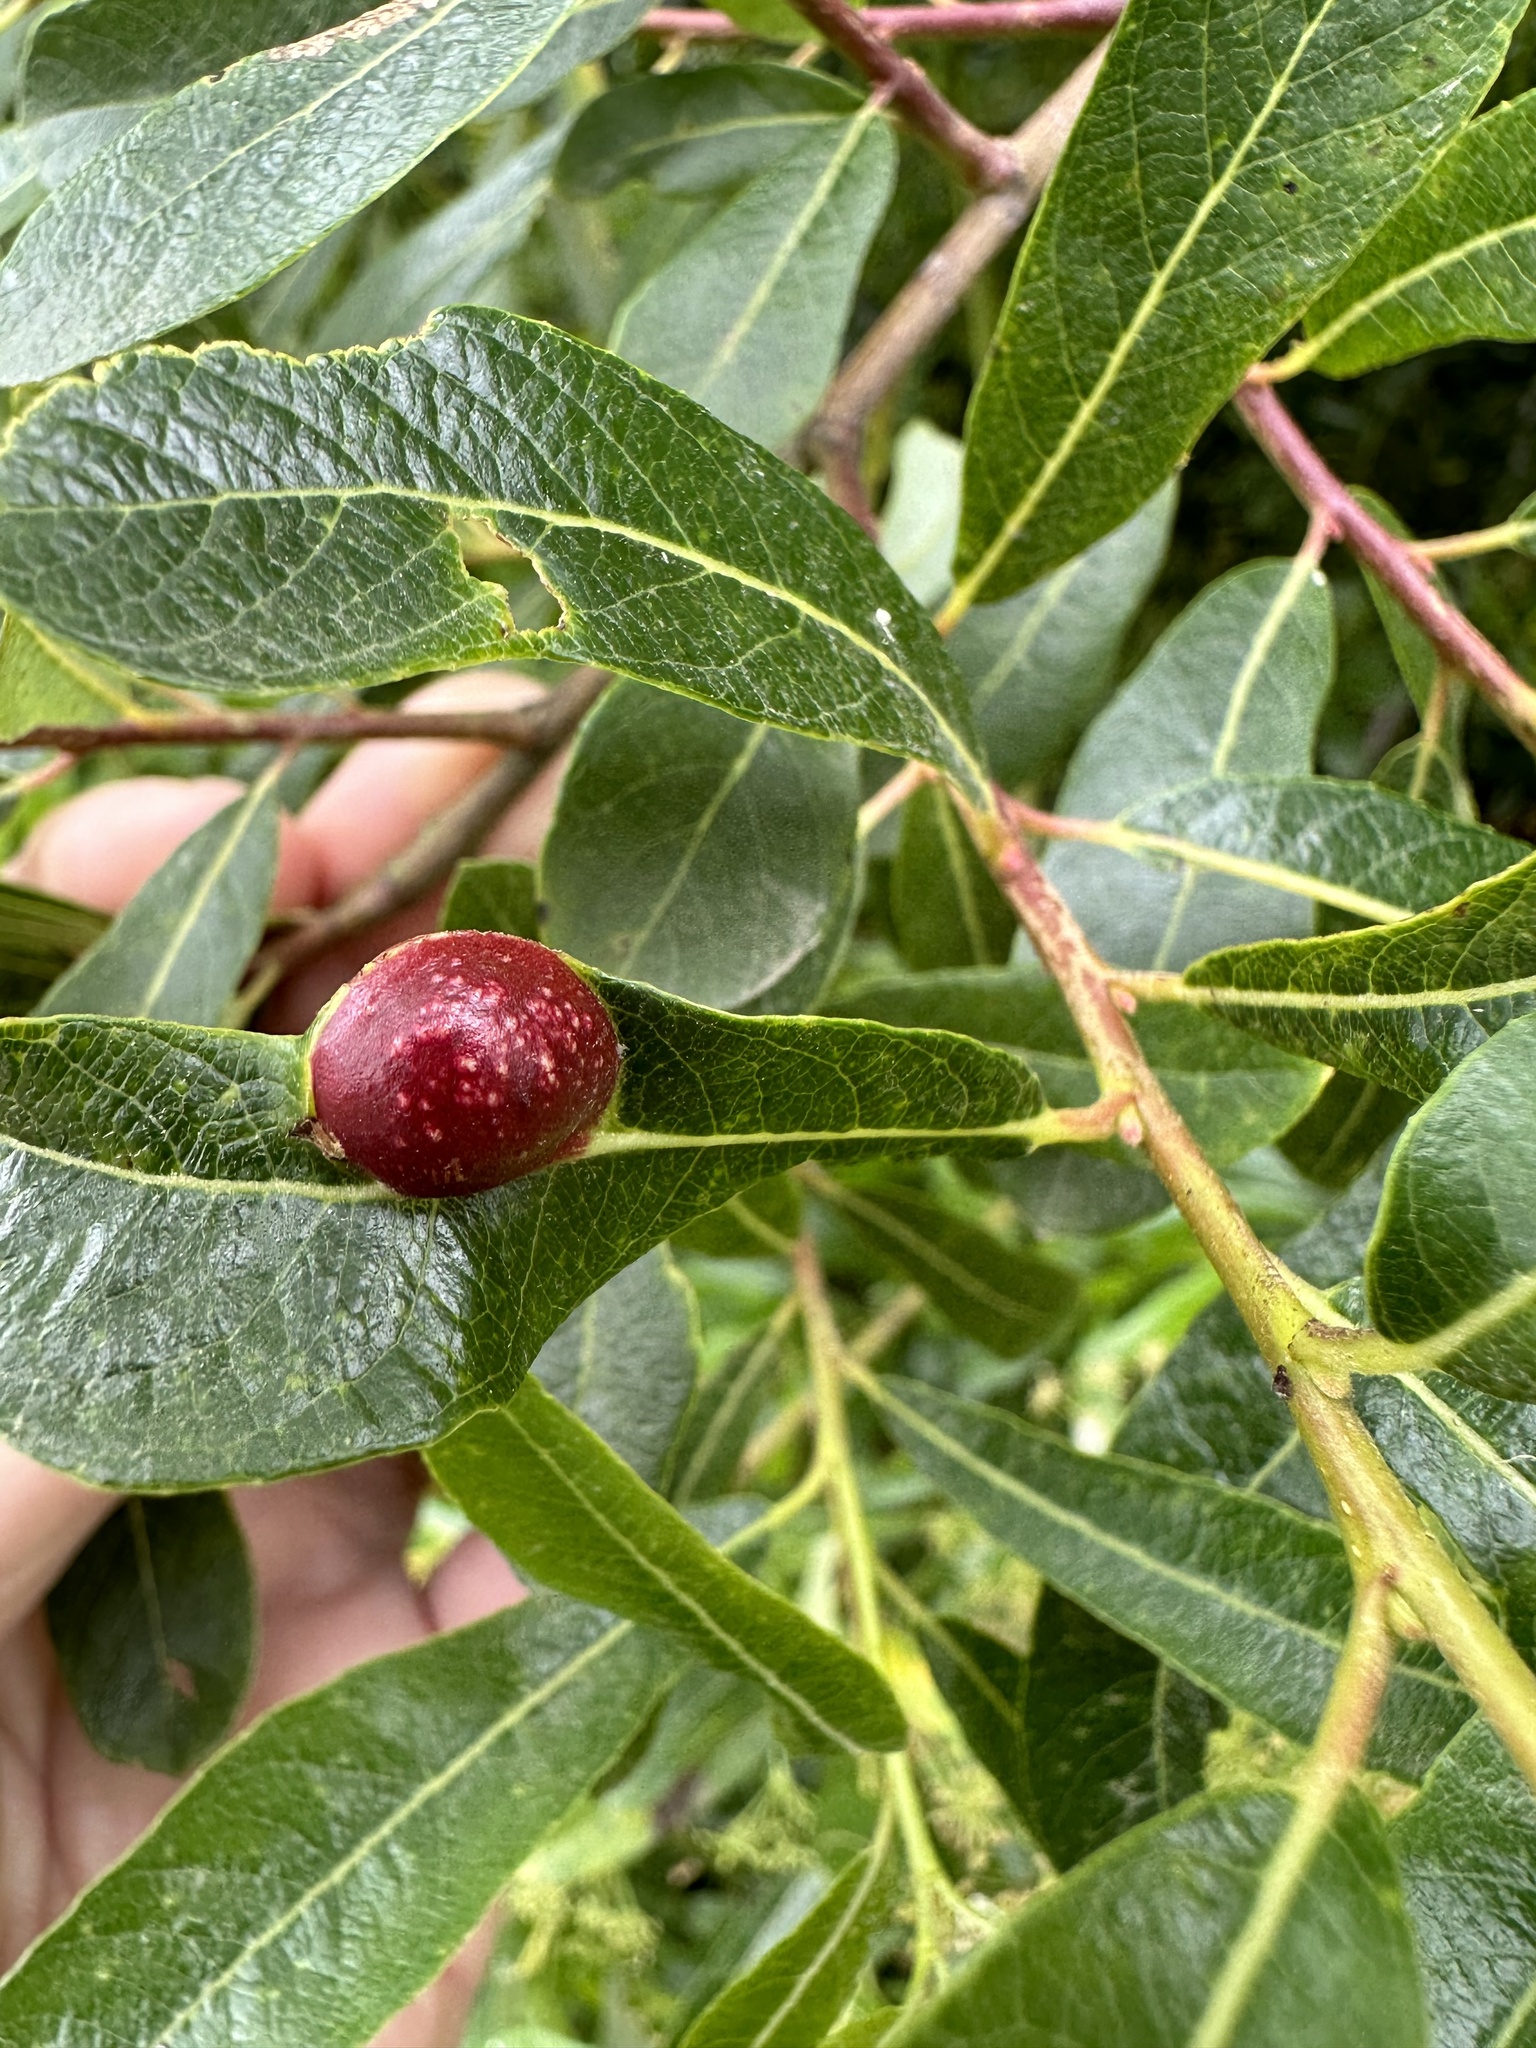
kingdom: Animalia
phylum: Arthropoda
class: Insecta
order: Hymenoptera
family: Tenthredinidae
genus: Euura
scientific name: Euura
